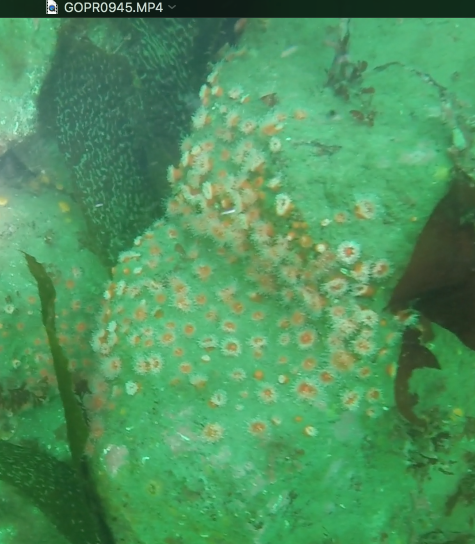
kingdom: Animalia
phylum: Cnidaria
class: Anthozoa
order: Corallimorpharia
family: Corallimorphidae
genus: Corynactis
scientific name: Corynactis californica
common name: Strawberry corallimorpharian
